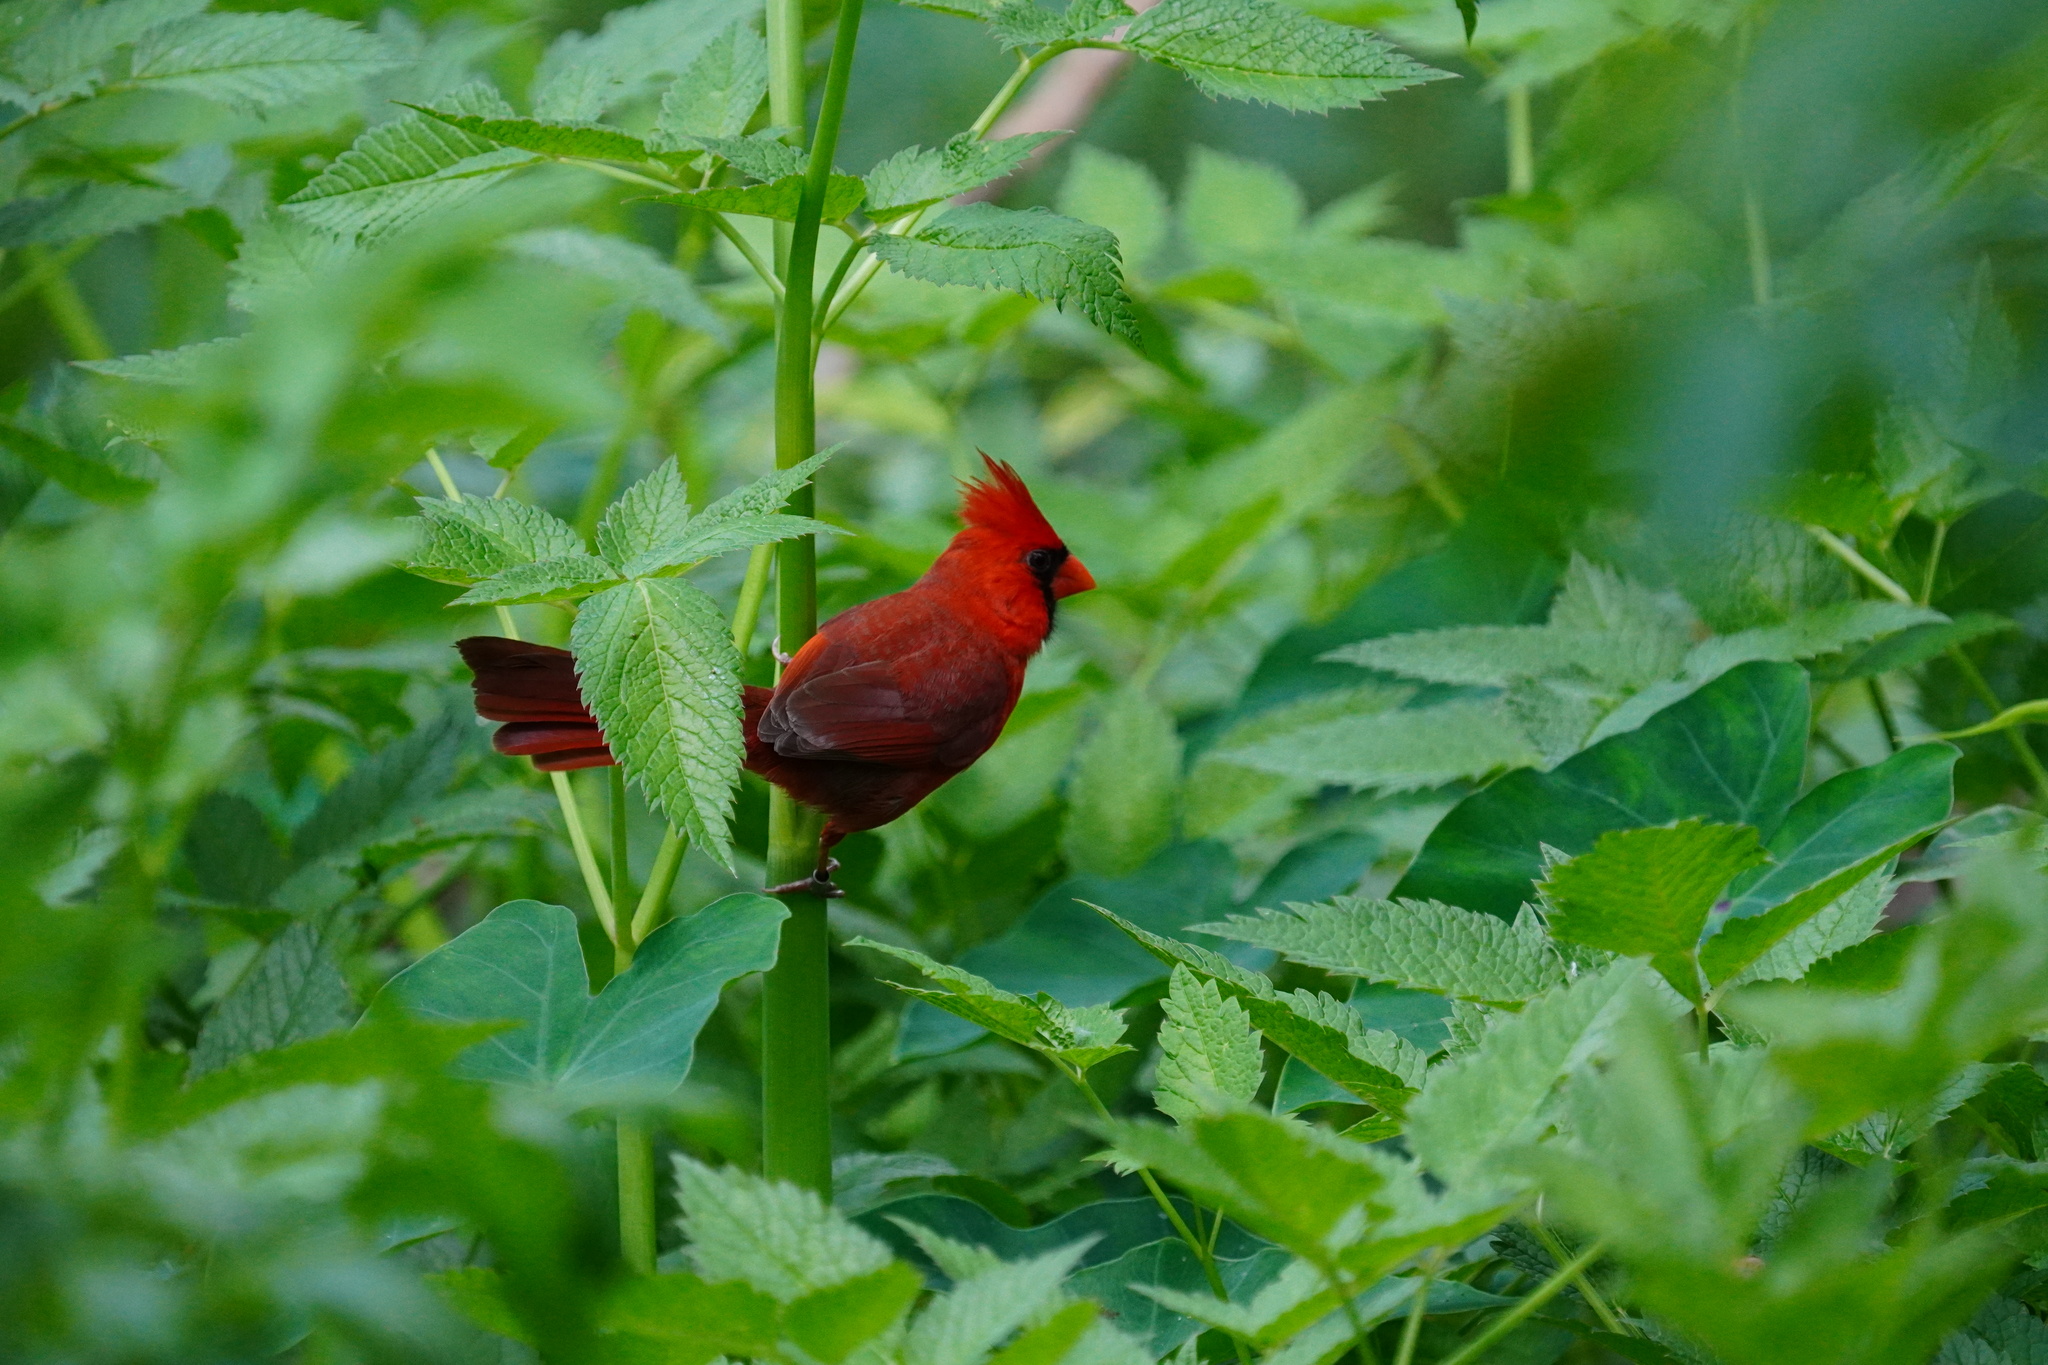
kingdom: Animalia
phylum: Chordata
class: Aves
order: Passeriformes
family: Cardinalidae
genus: Cardinalis
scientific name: Cardinalis cardinalis
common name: Northern cardinal
